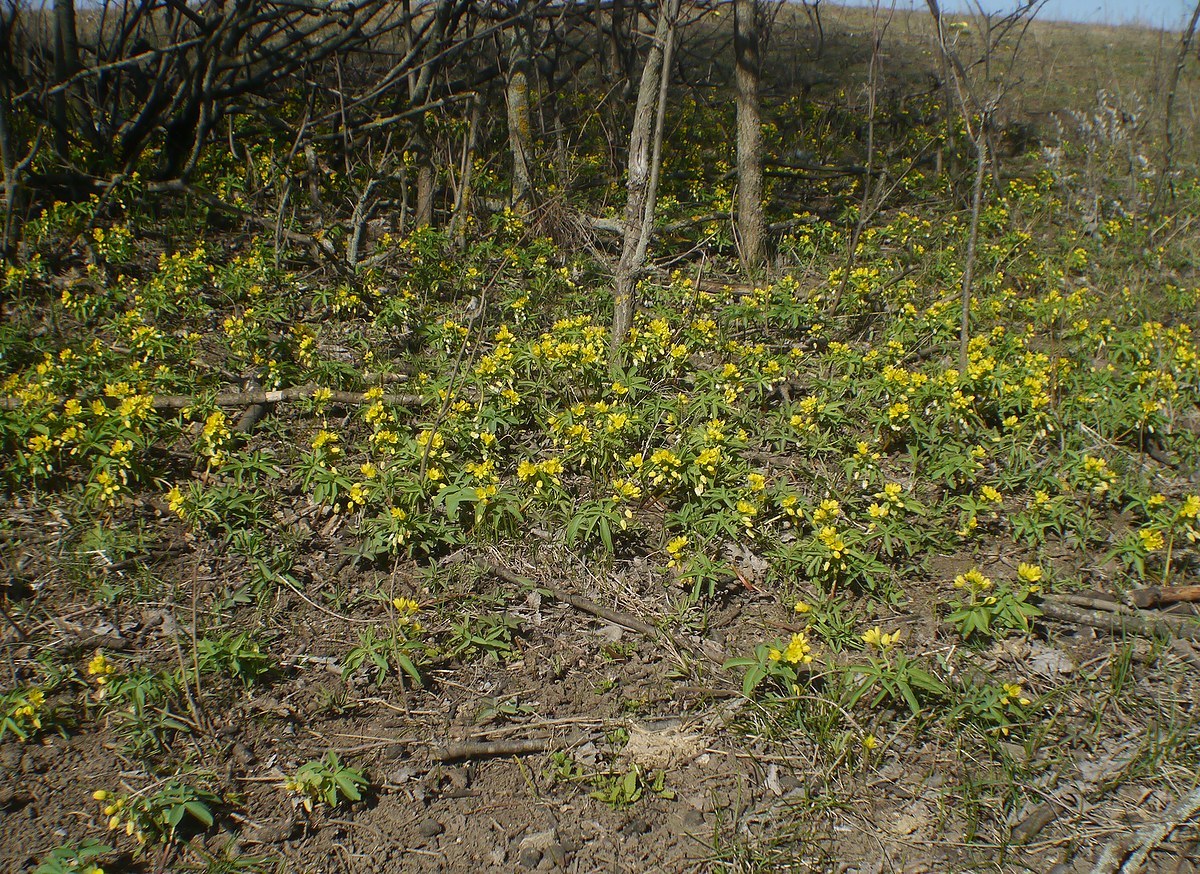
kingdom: Plantae
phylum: Tracheophyta
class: Magnoliopsida
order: Ranunculales
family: Berberidaceae
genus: Gymnospermium
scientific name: Gymnospermium odessanum
